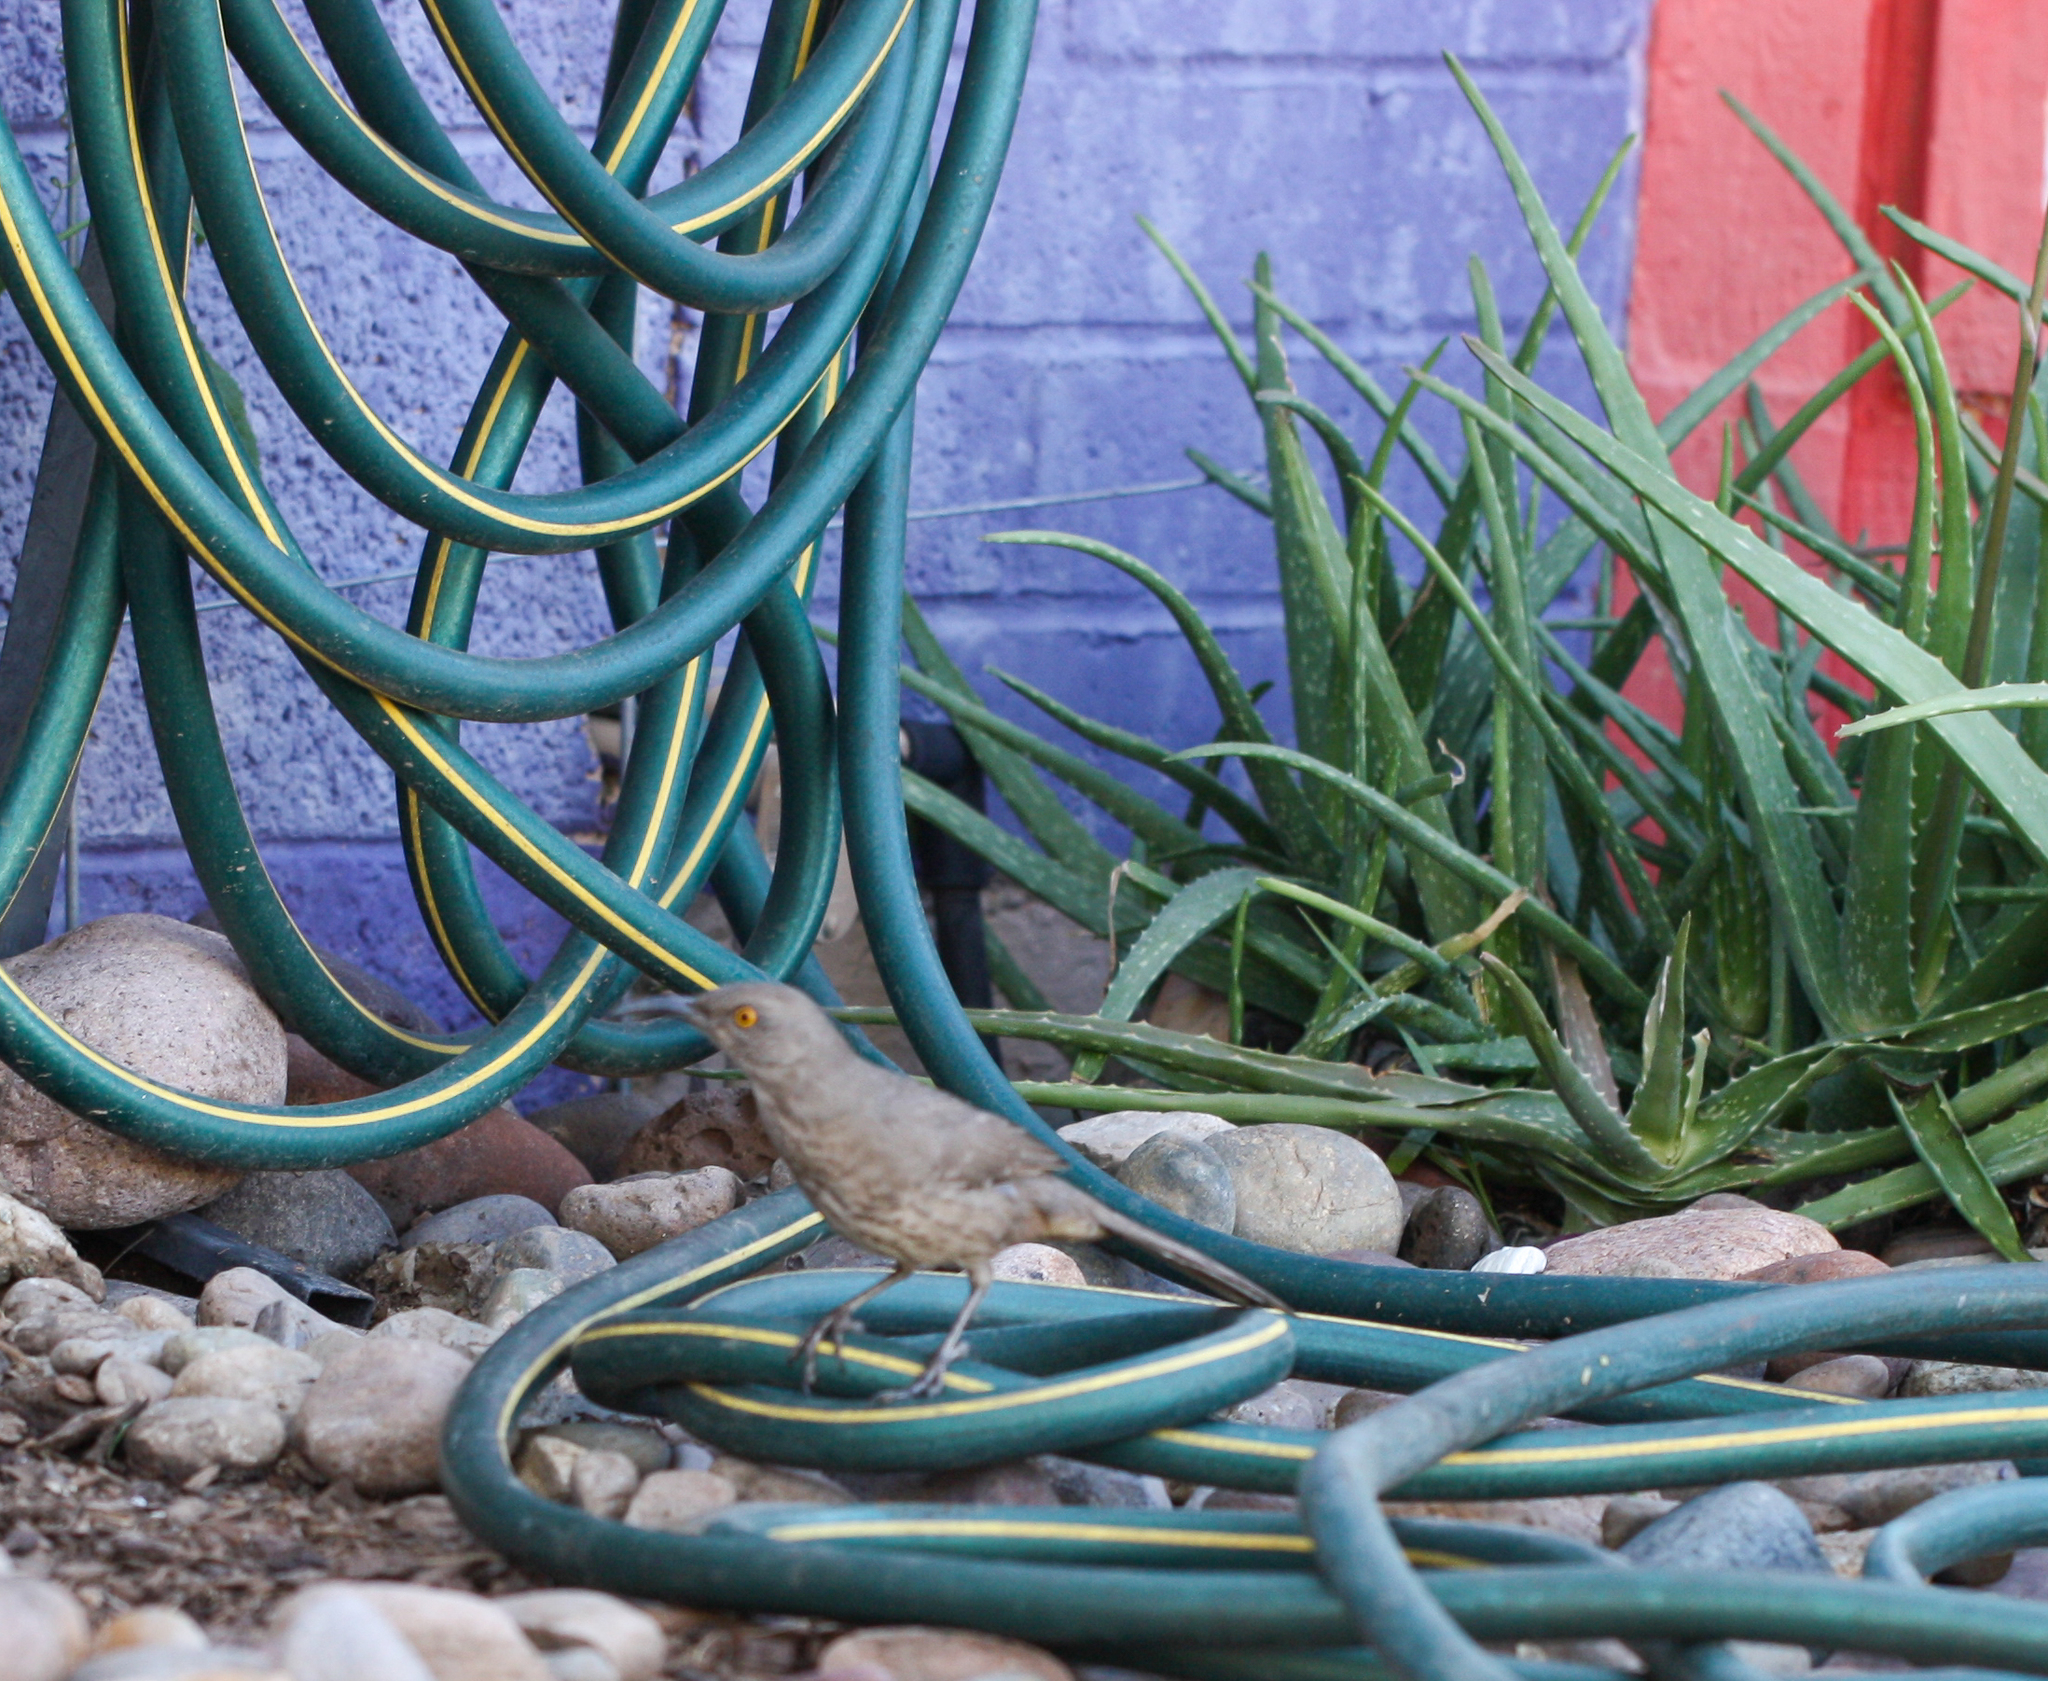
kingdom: Animalia
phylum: Chordata
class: Aves
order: Passeriformes
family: Mimidae
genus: Toxostoma
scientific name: Toxostoma curvirostre
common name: Curve-billed thrasher
